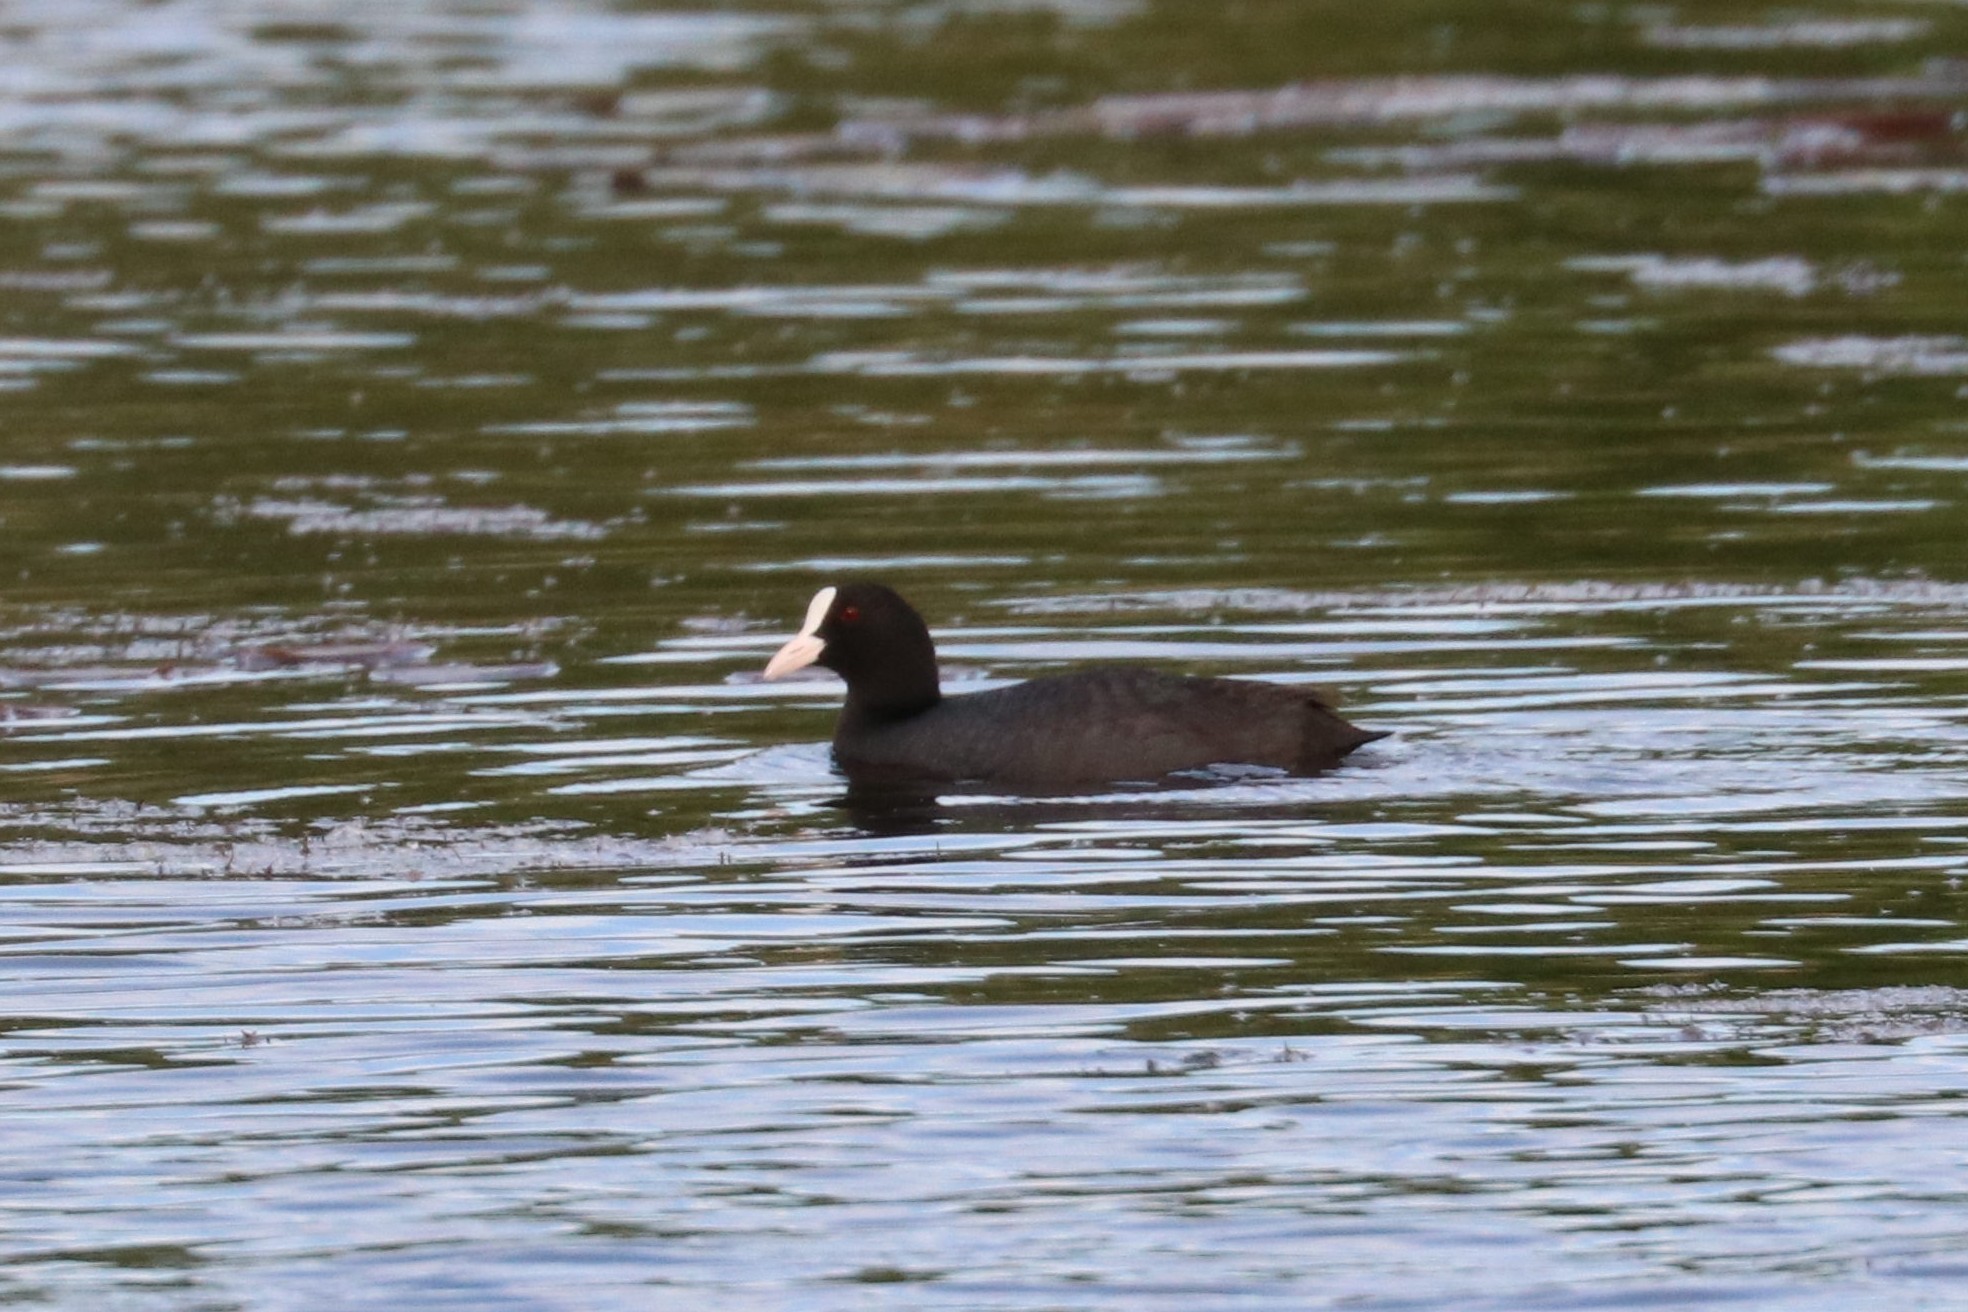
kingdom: Animalia
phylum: Chordata
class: Aves
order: Gruiformes
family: Rallidae
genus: Fulica
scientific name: Fulica atra
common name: Eurasian coot
